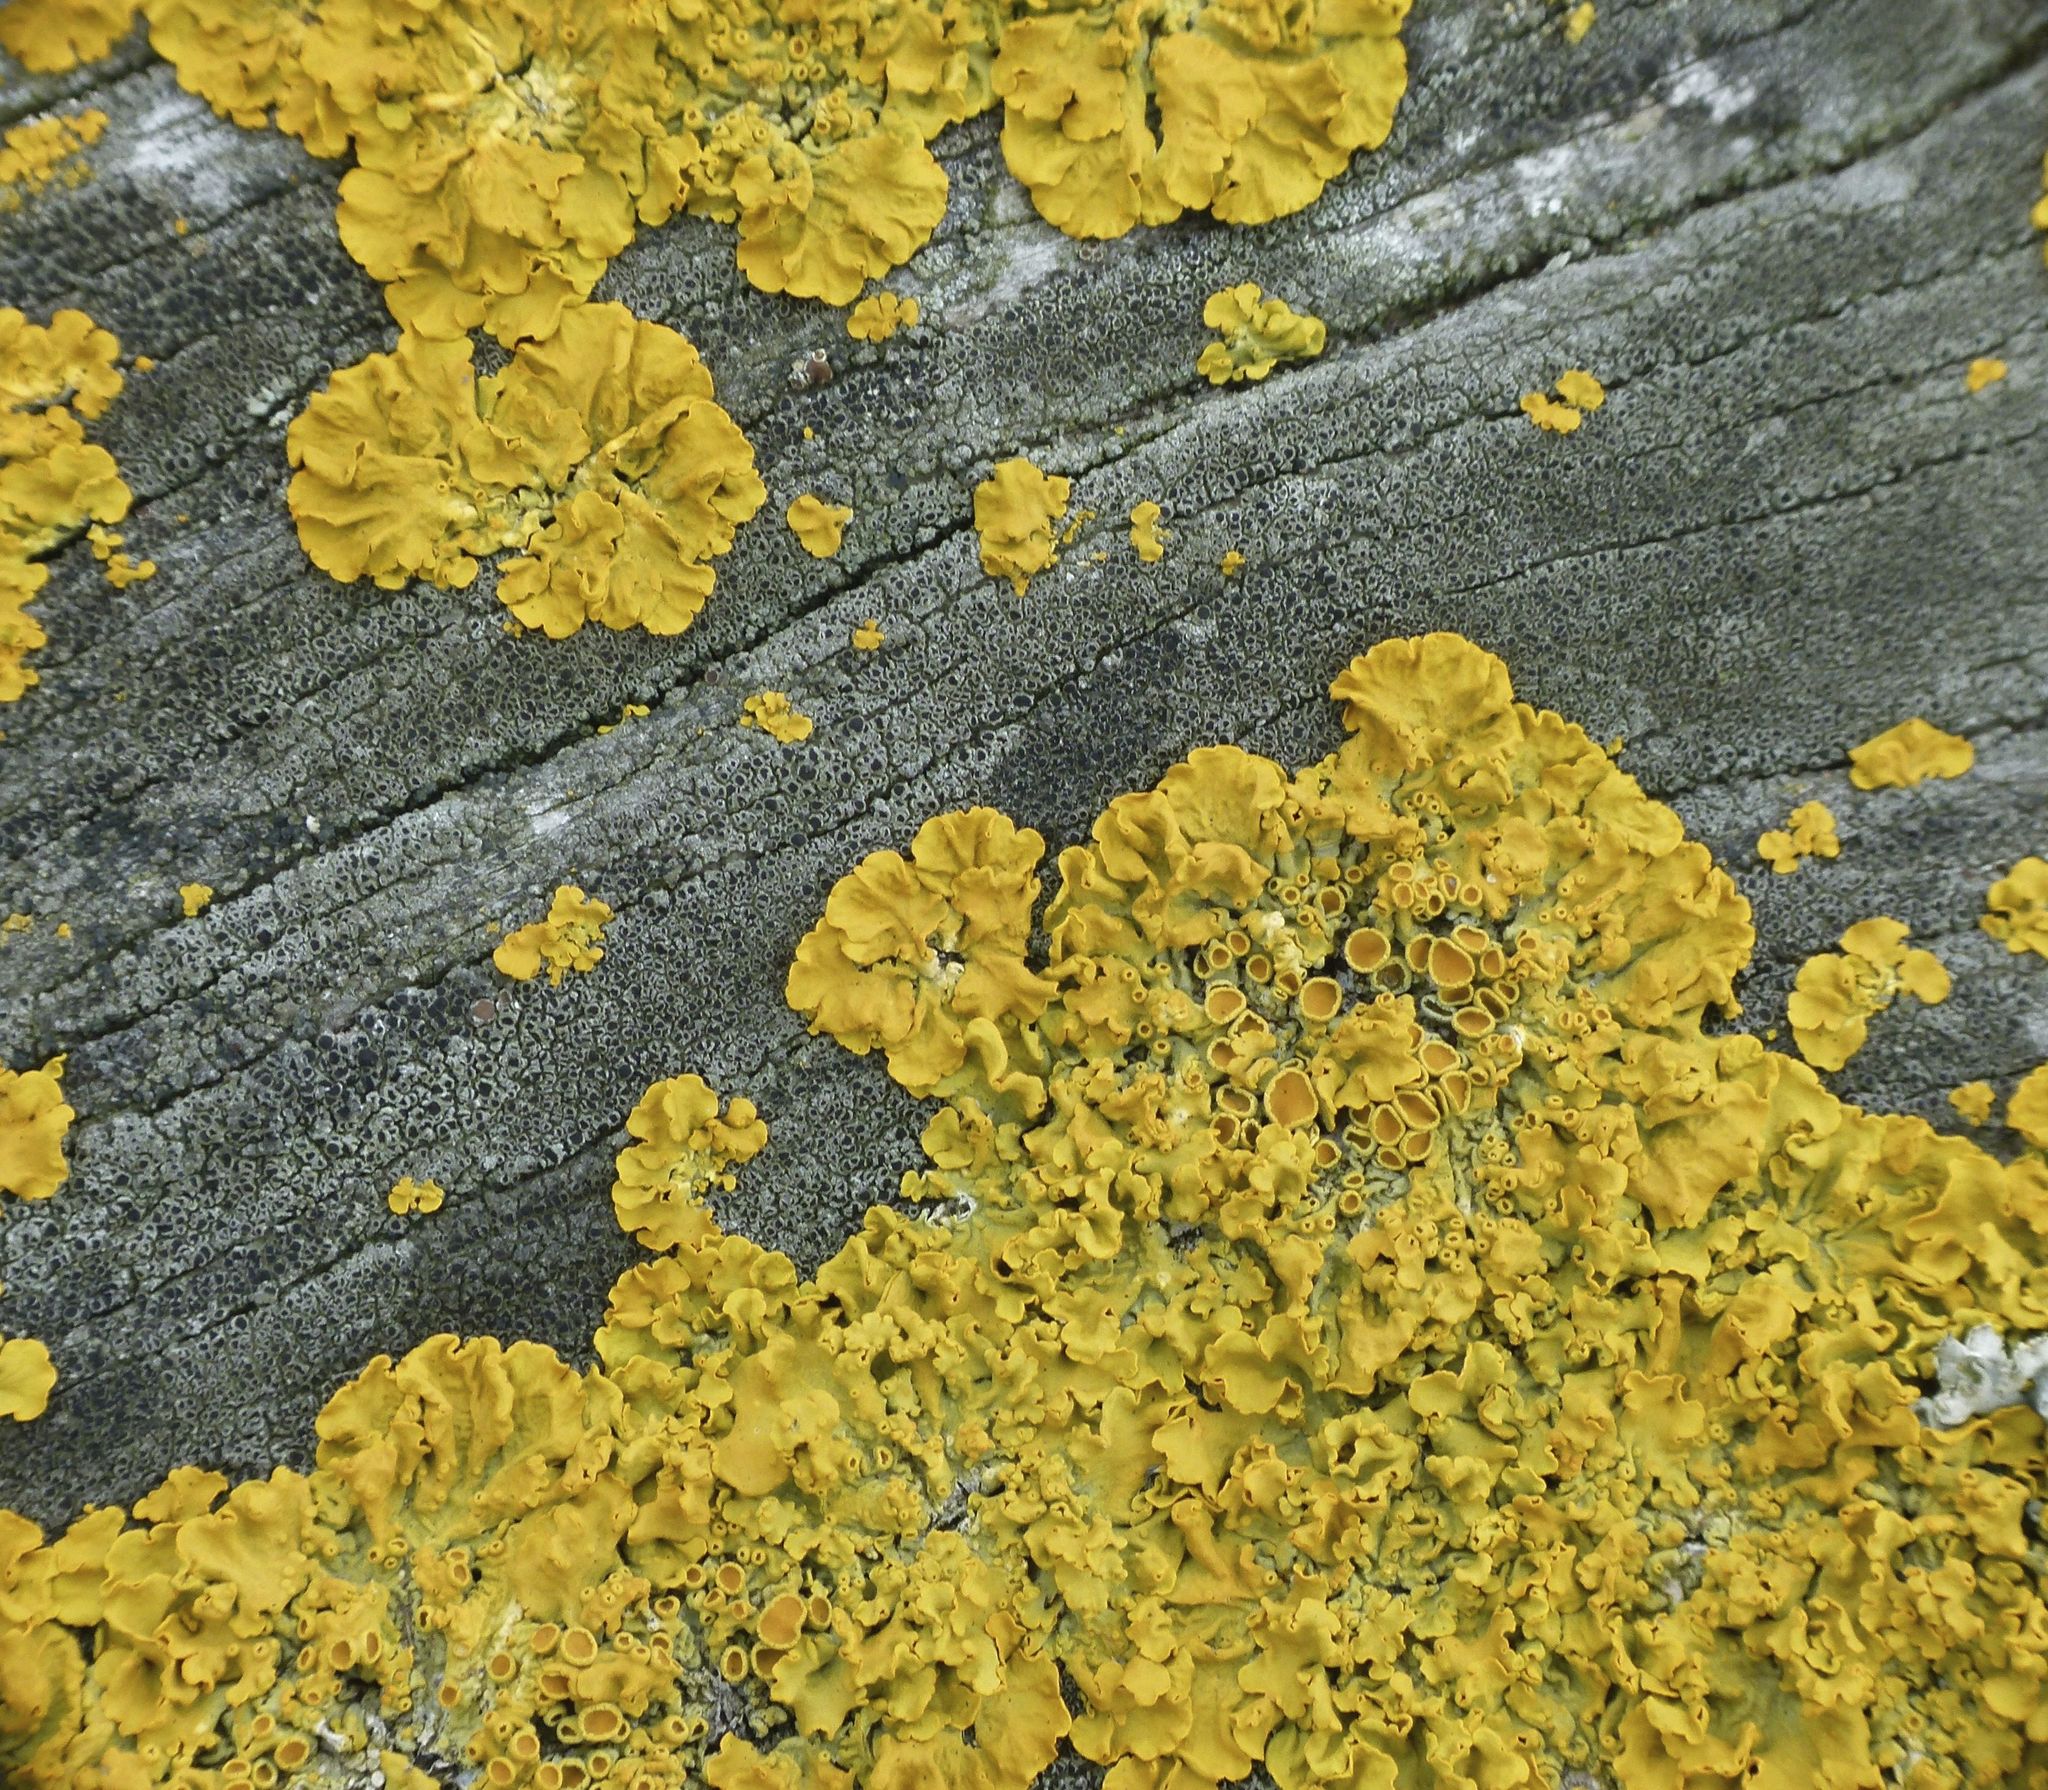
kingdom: Fungi
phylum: Ascomycota
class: Lecanoromycetes
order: Teloschistales
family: Teloschistaceae
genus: Xanthoria
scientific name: Xanthoria parietina
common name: Common orange lichen
